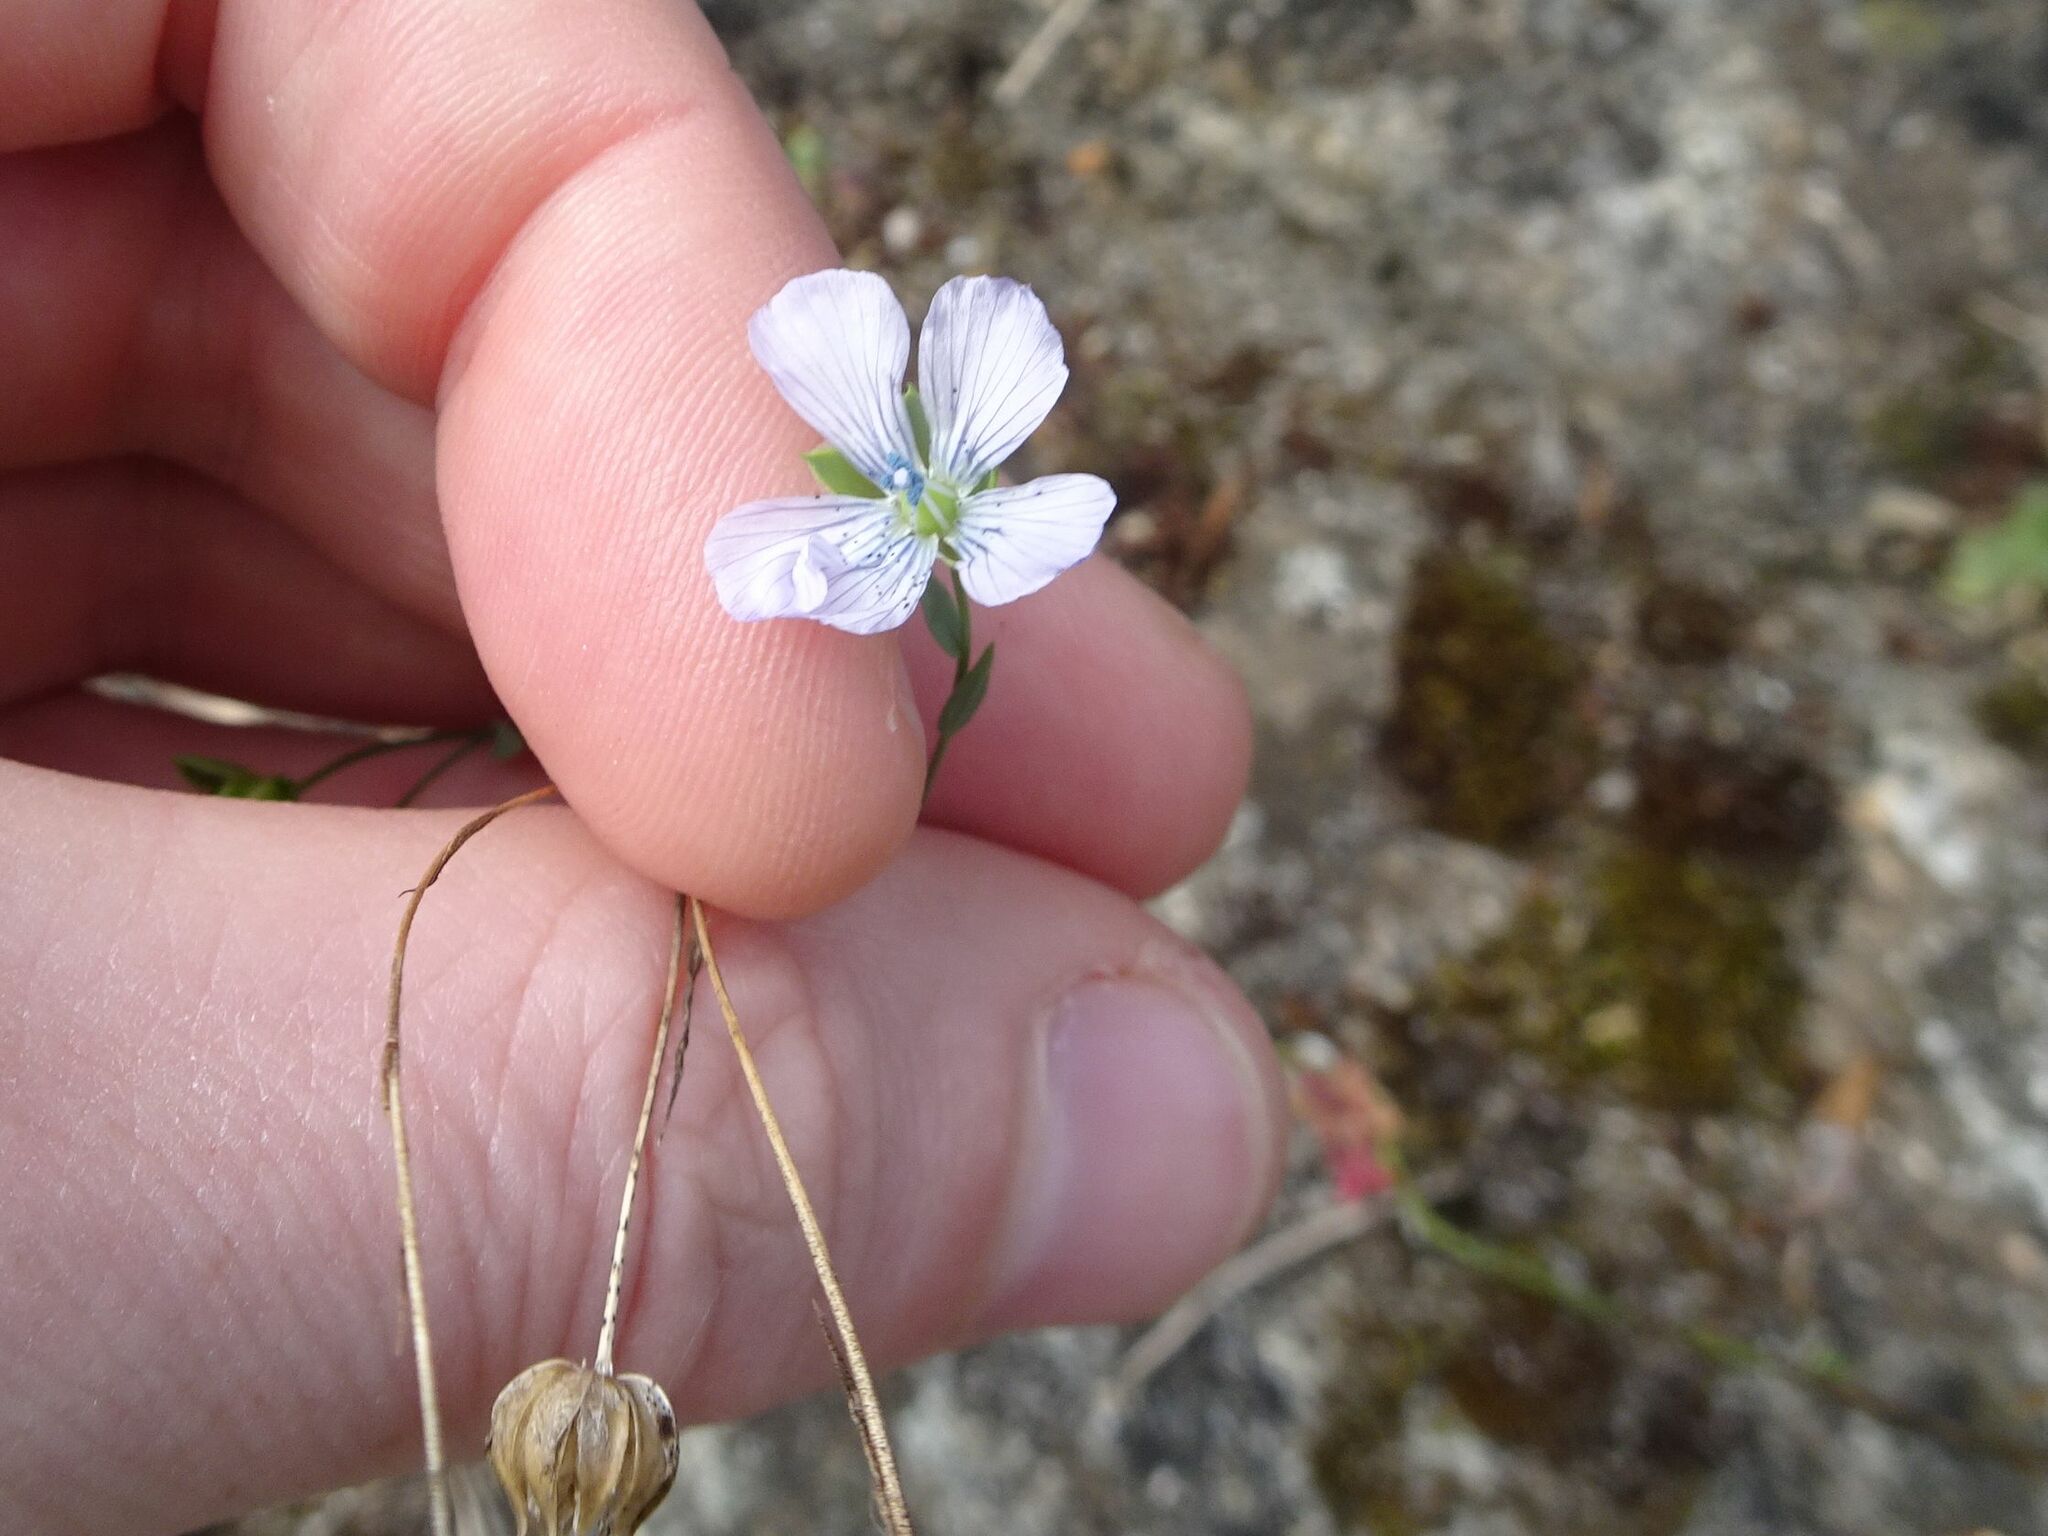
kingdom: Plantae
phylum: Tracheophyta
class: Magnoliopsida
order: Malpighiales
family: Linaceae
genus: Linum
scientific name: Linum bienne
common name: Pale flax
